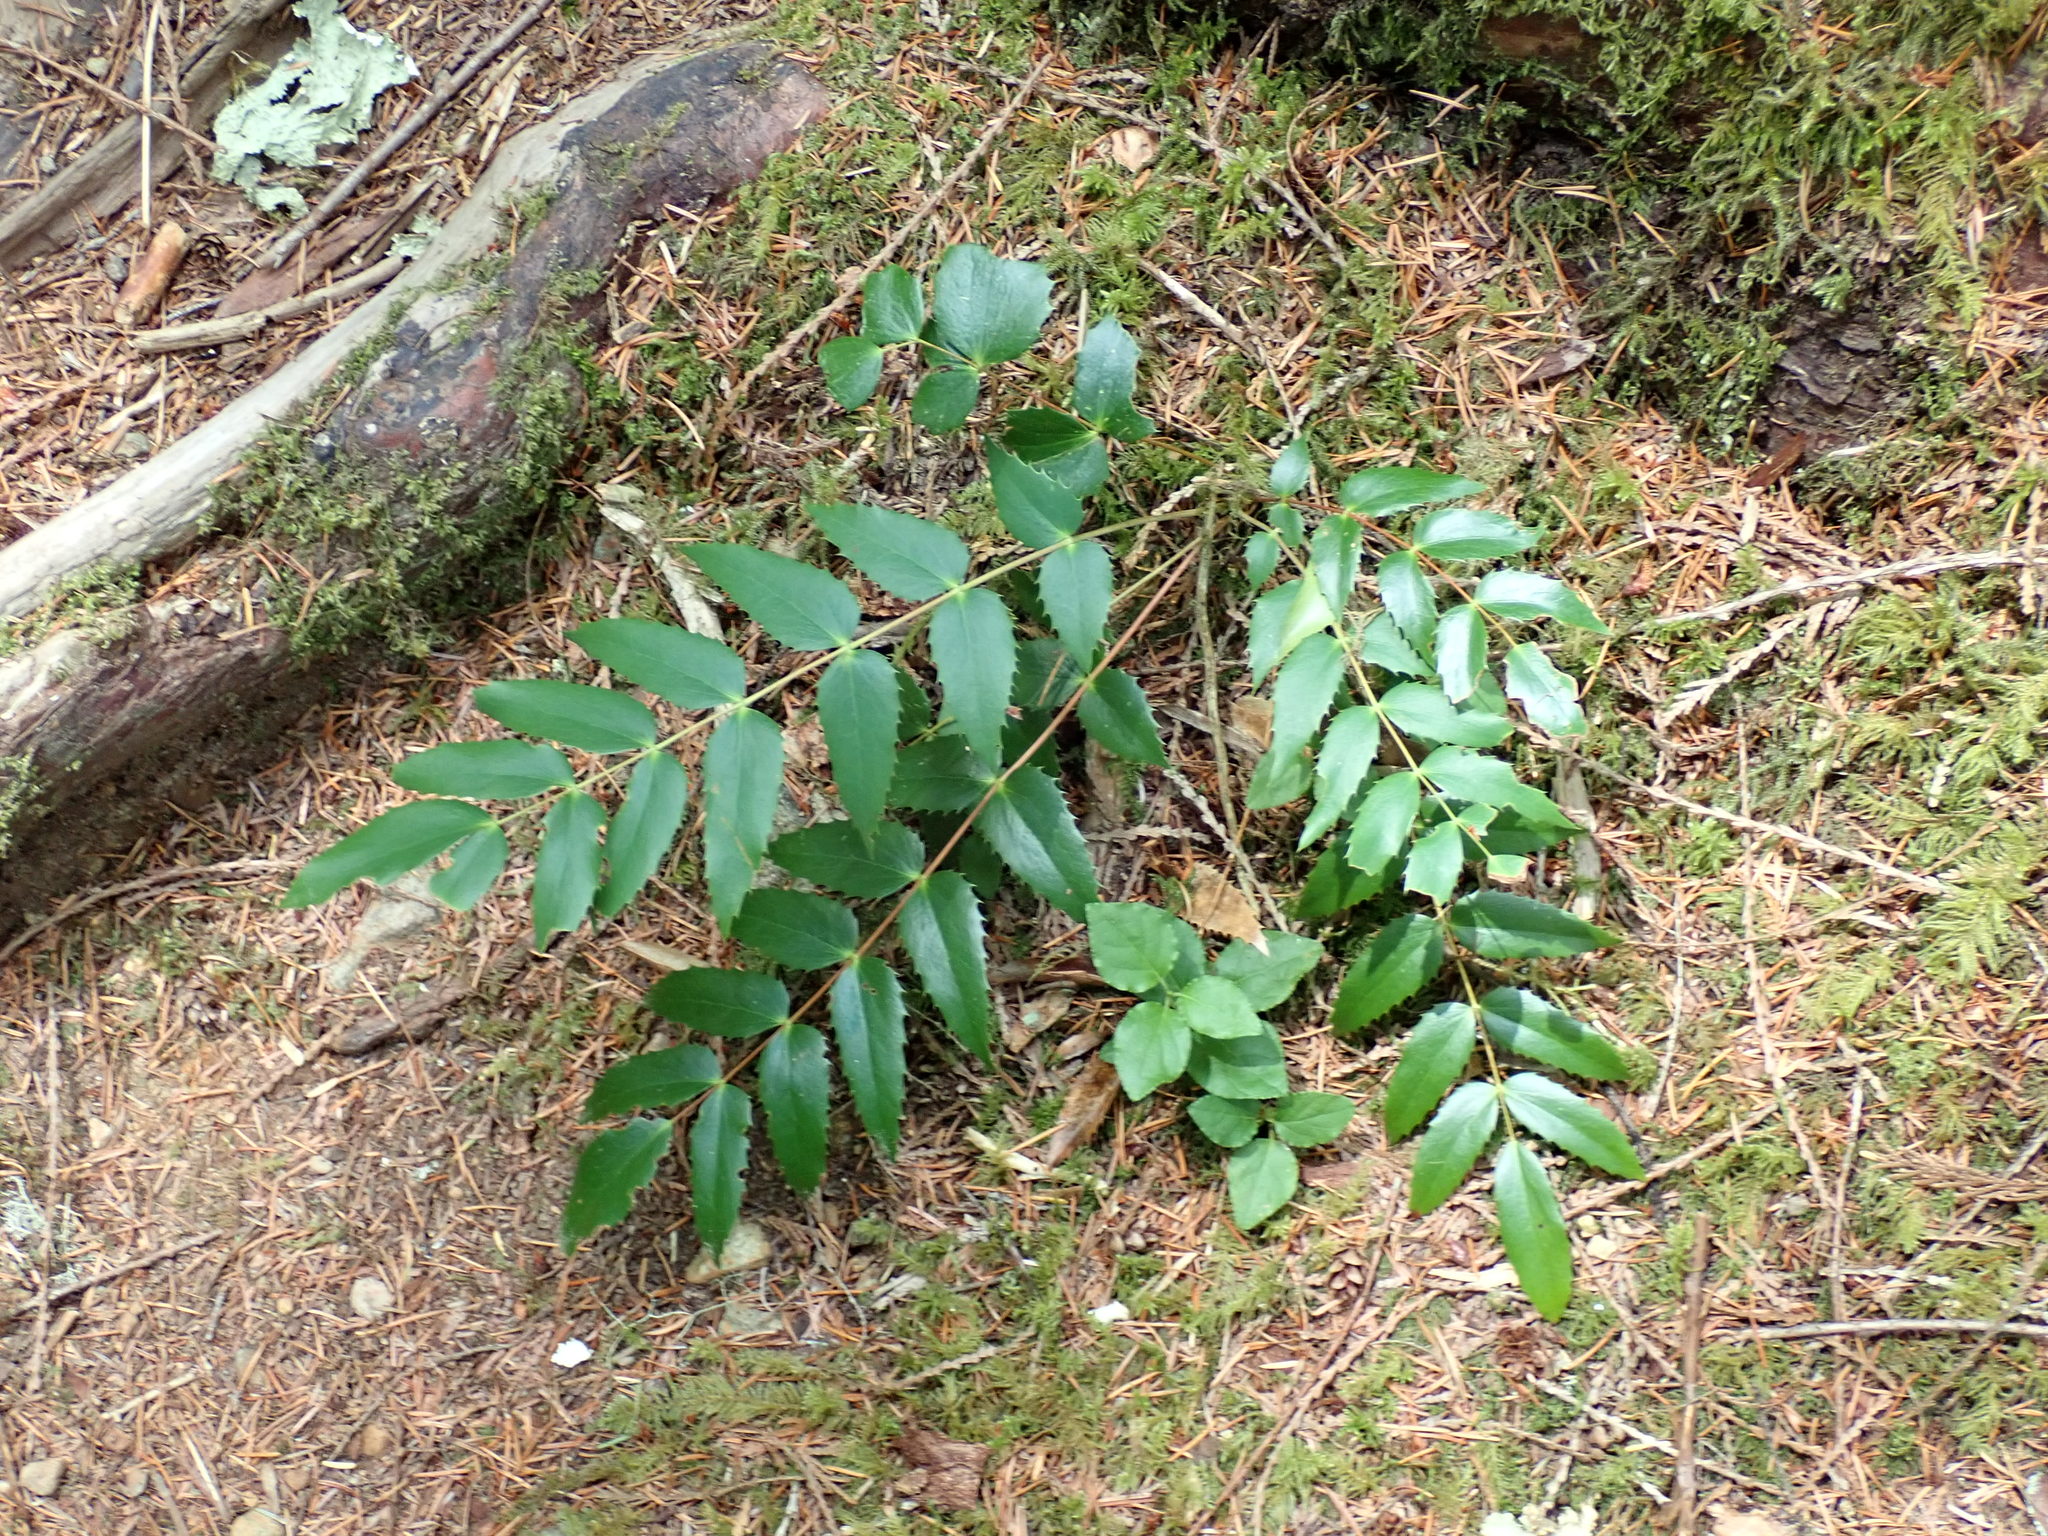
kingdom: Plantae
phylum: Tracheophyta
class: Magnoliopsida
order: Ranunculales
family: Berberidaceae
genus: Mahonia
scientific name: Mahonia nervosa
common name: Cascade oregon-grape
